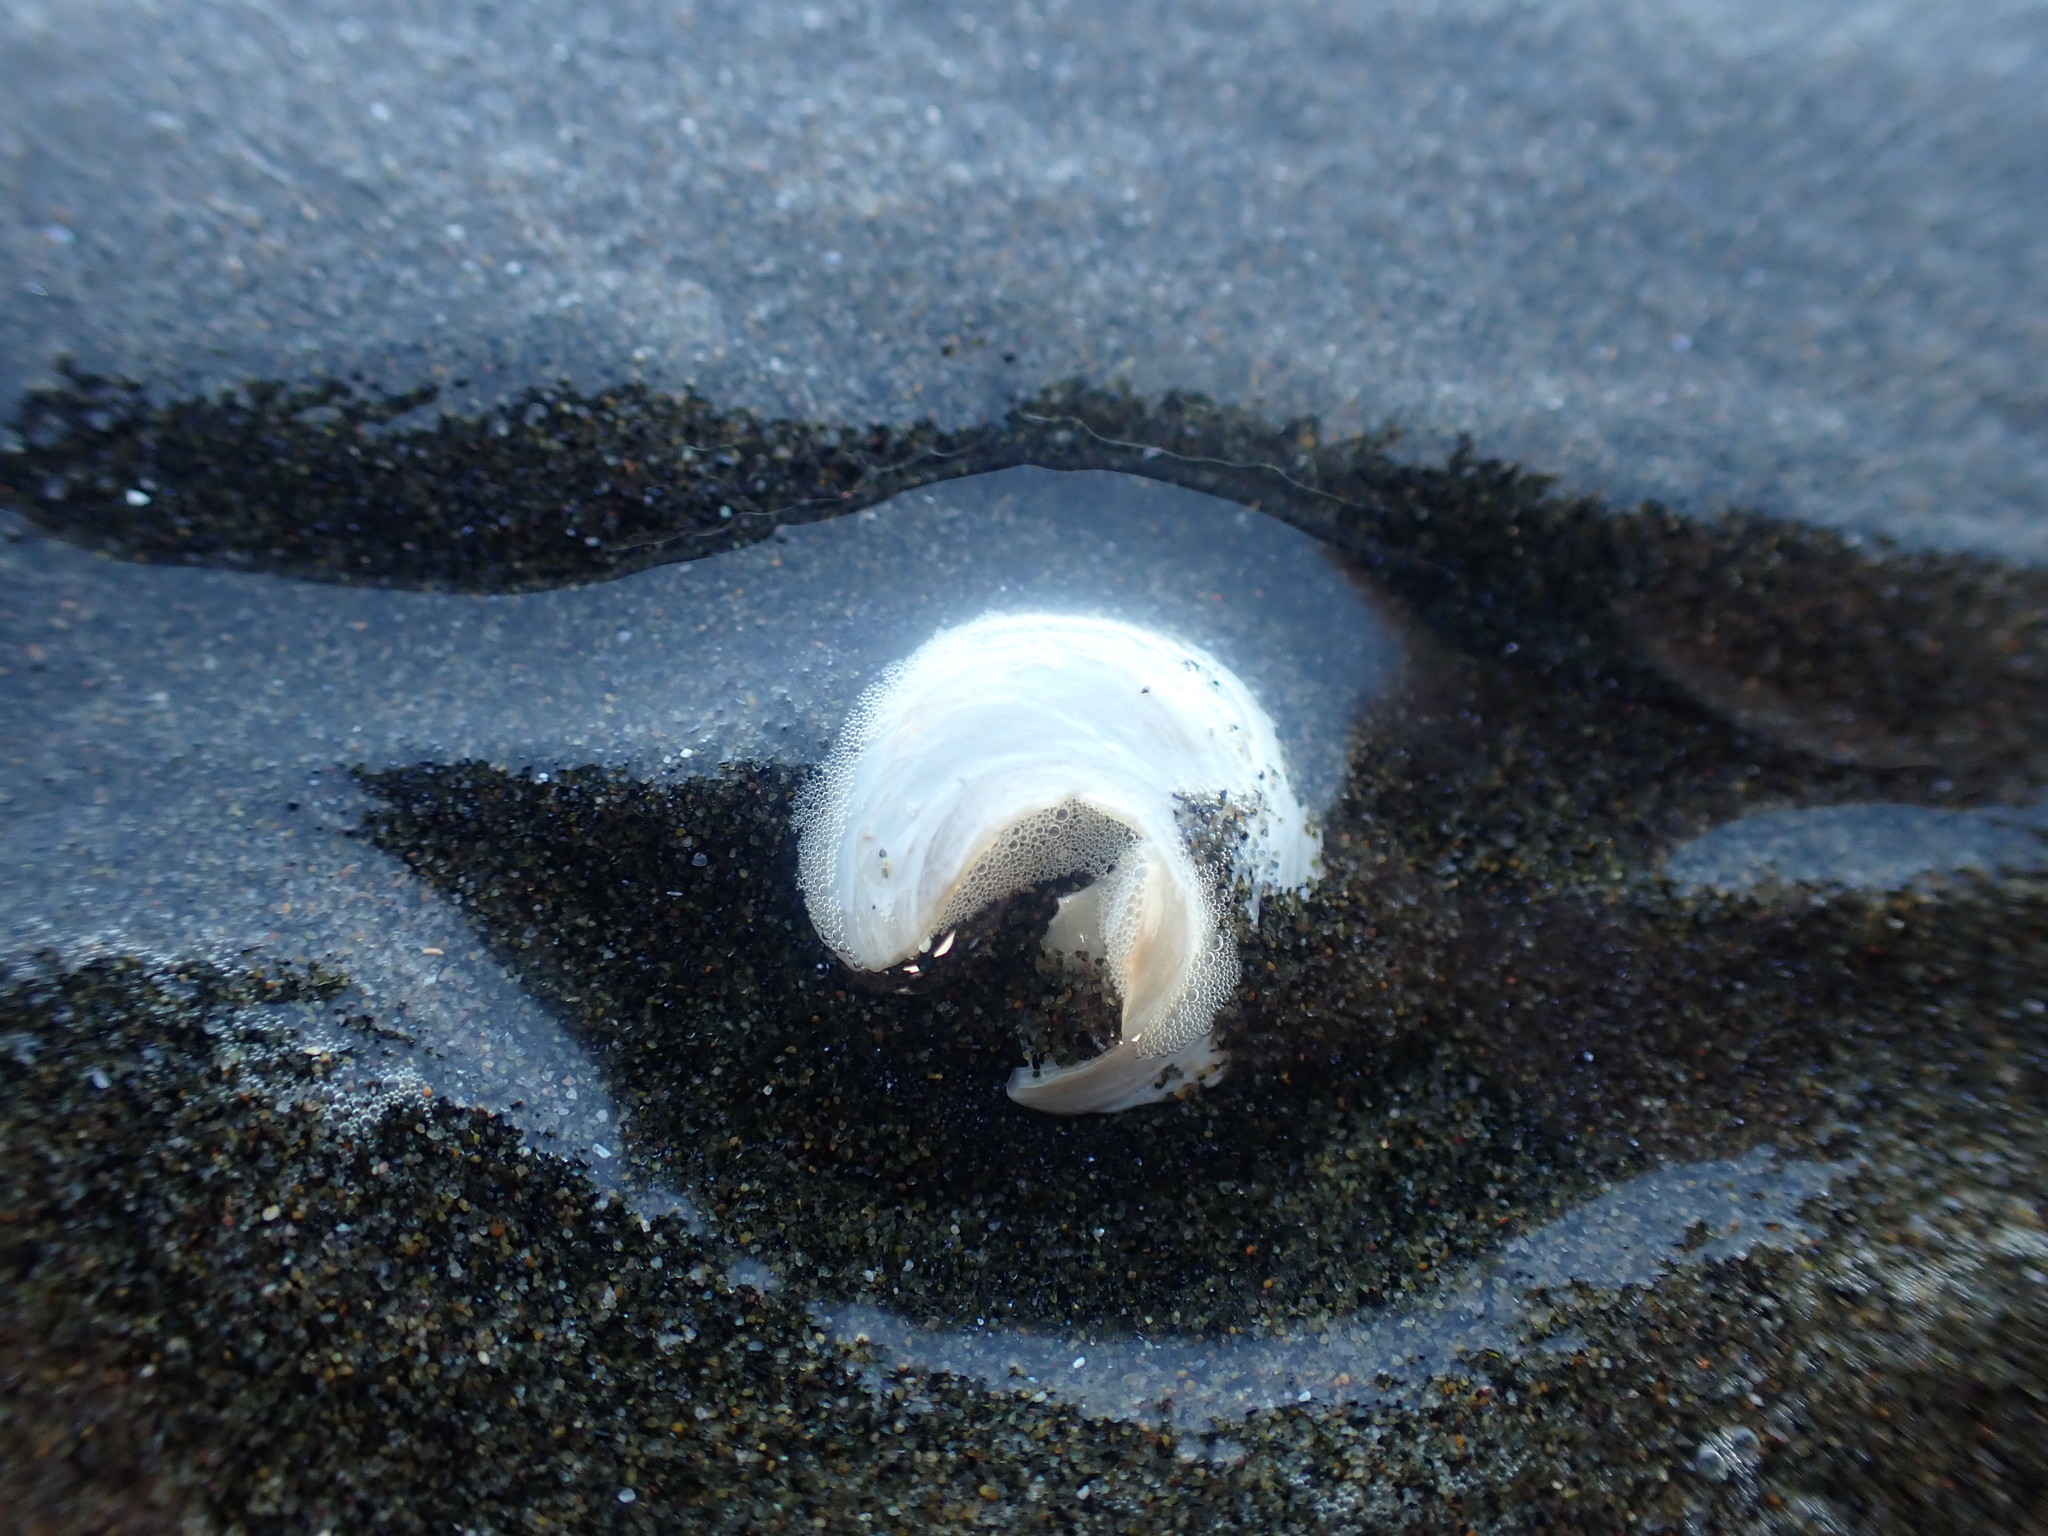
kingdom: Animalia
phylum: Mollusca
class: Gastropoda
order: Littorinimorpha
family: Calyptraeidae
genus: Sigapatella
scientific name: Sigapatella tenuis
